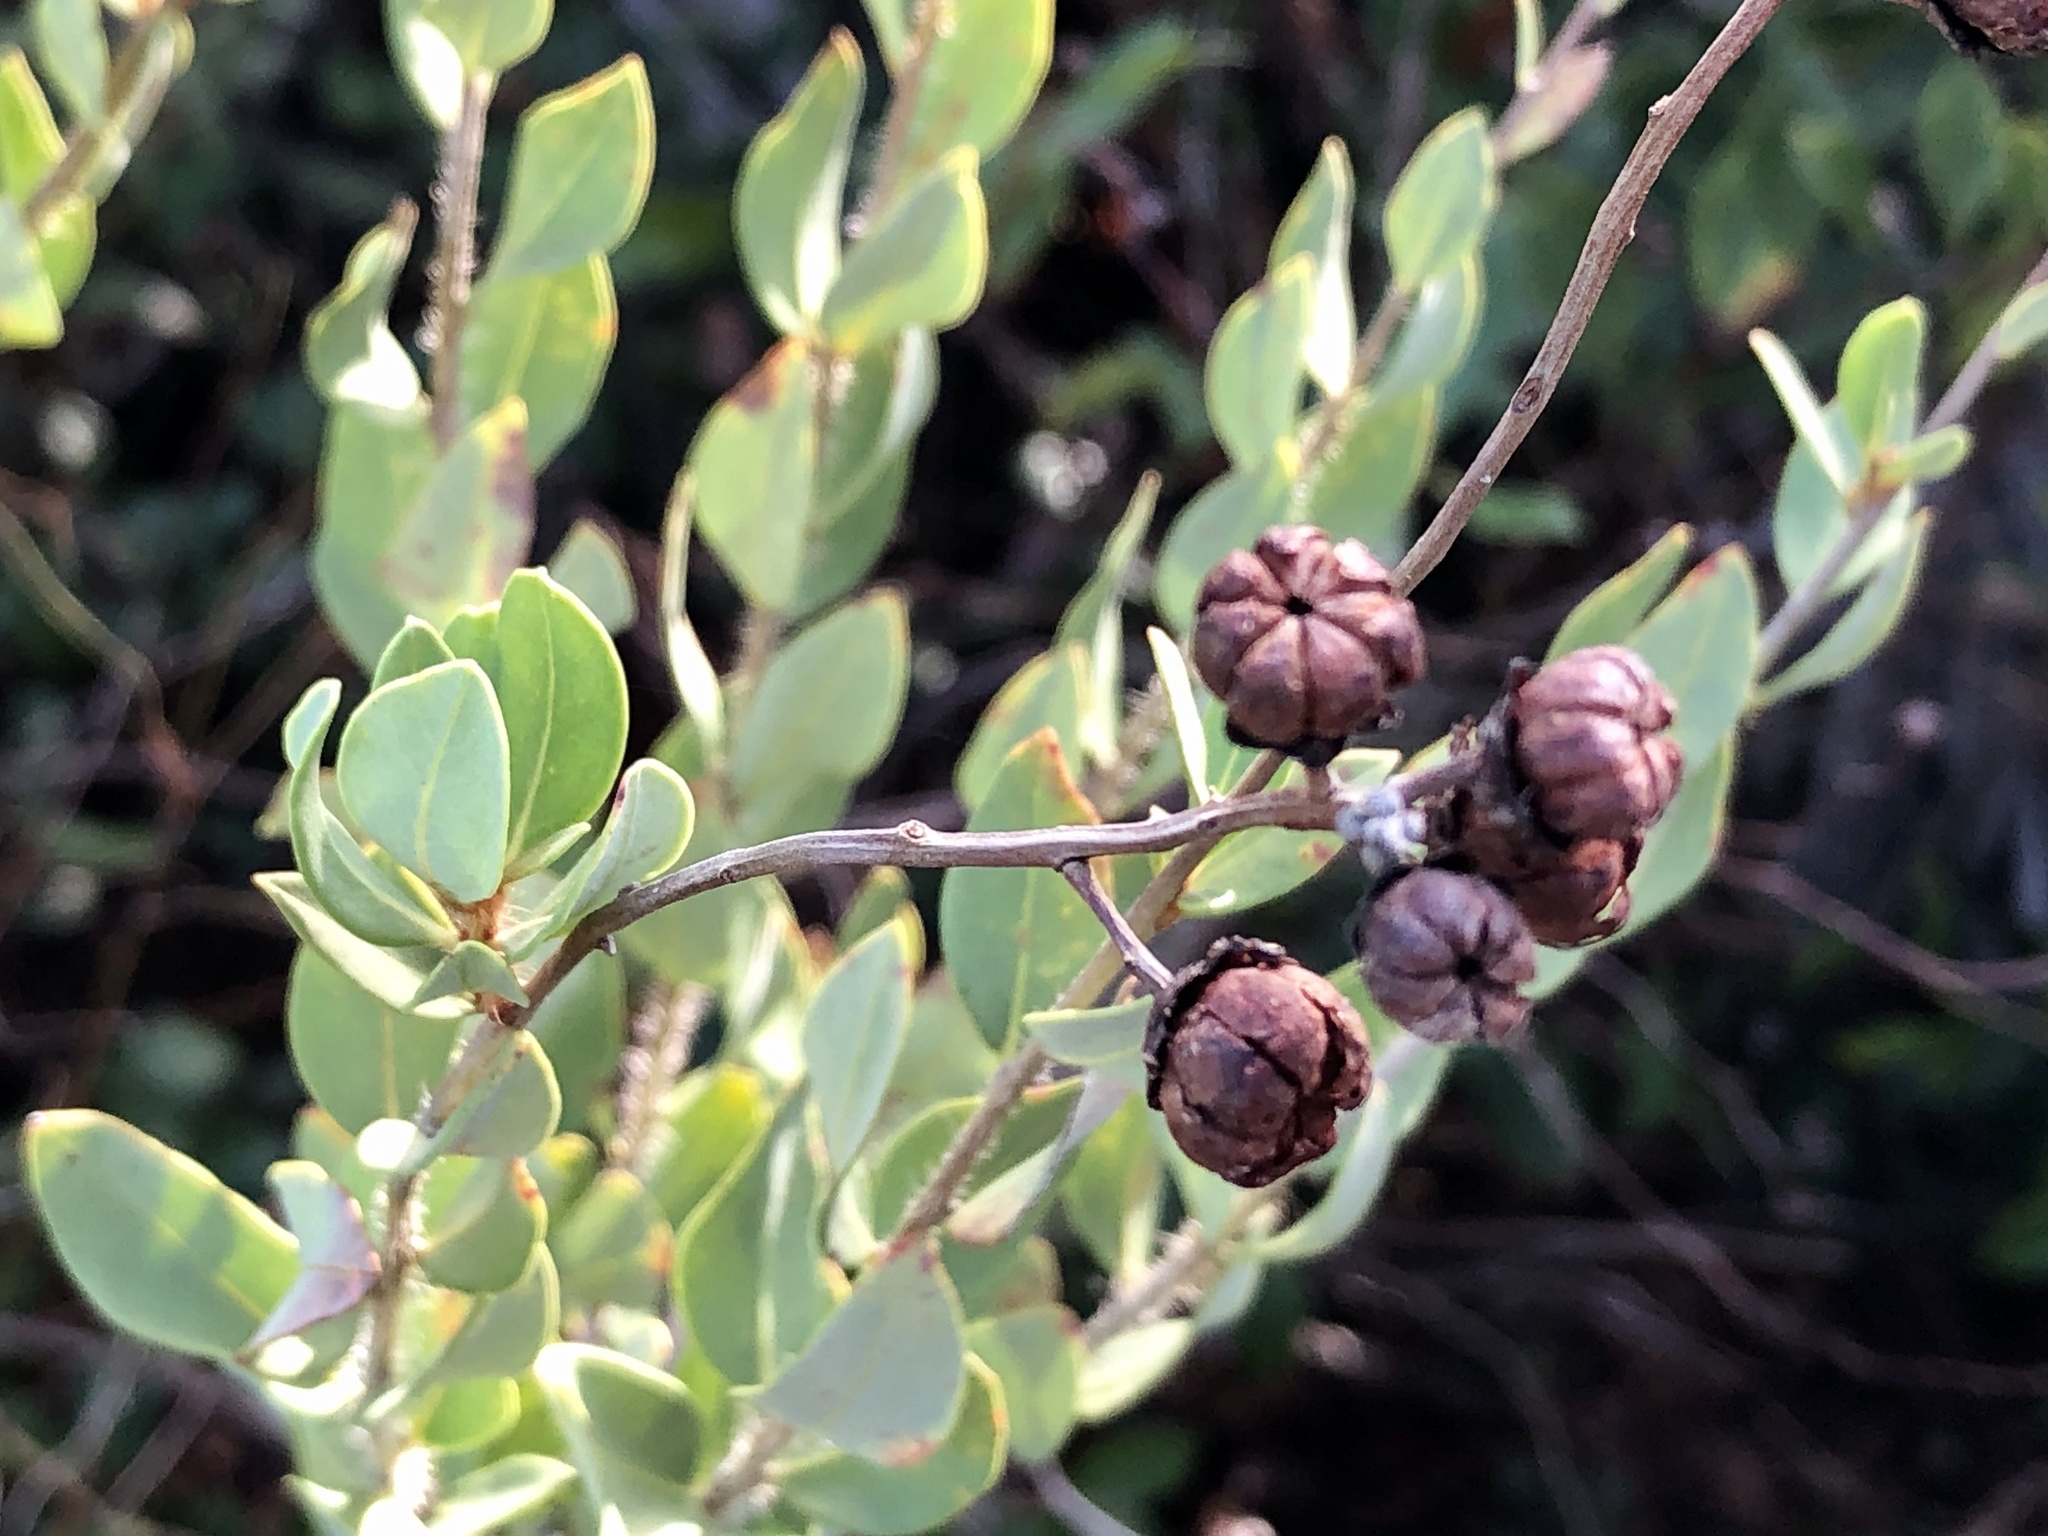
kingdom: Plantae
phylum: Tracheophyta
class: Magnoliopsida
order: Ericales
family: Ericaceae
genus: Bejaria
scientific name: Bejaria racemosa
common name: Tarflower
